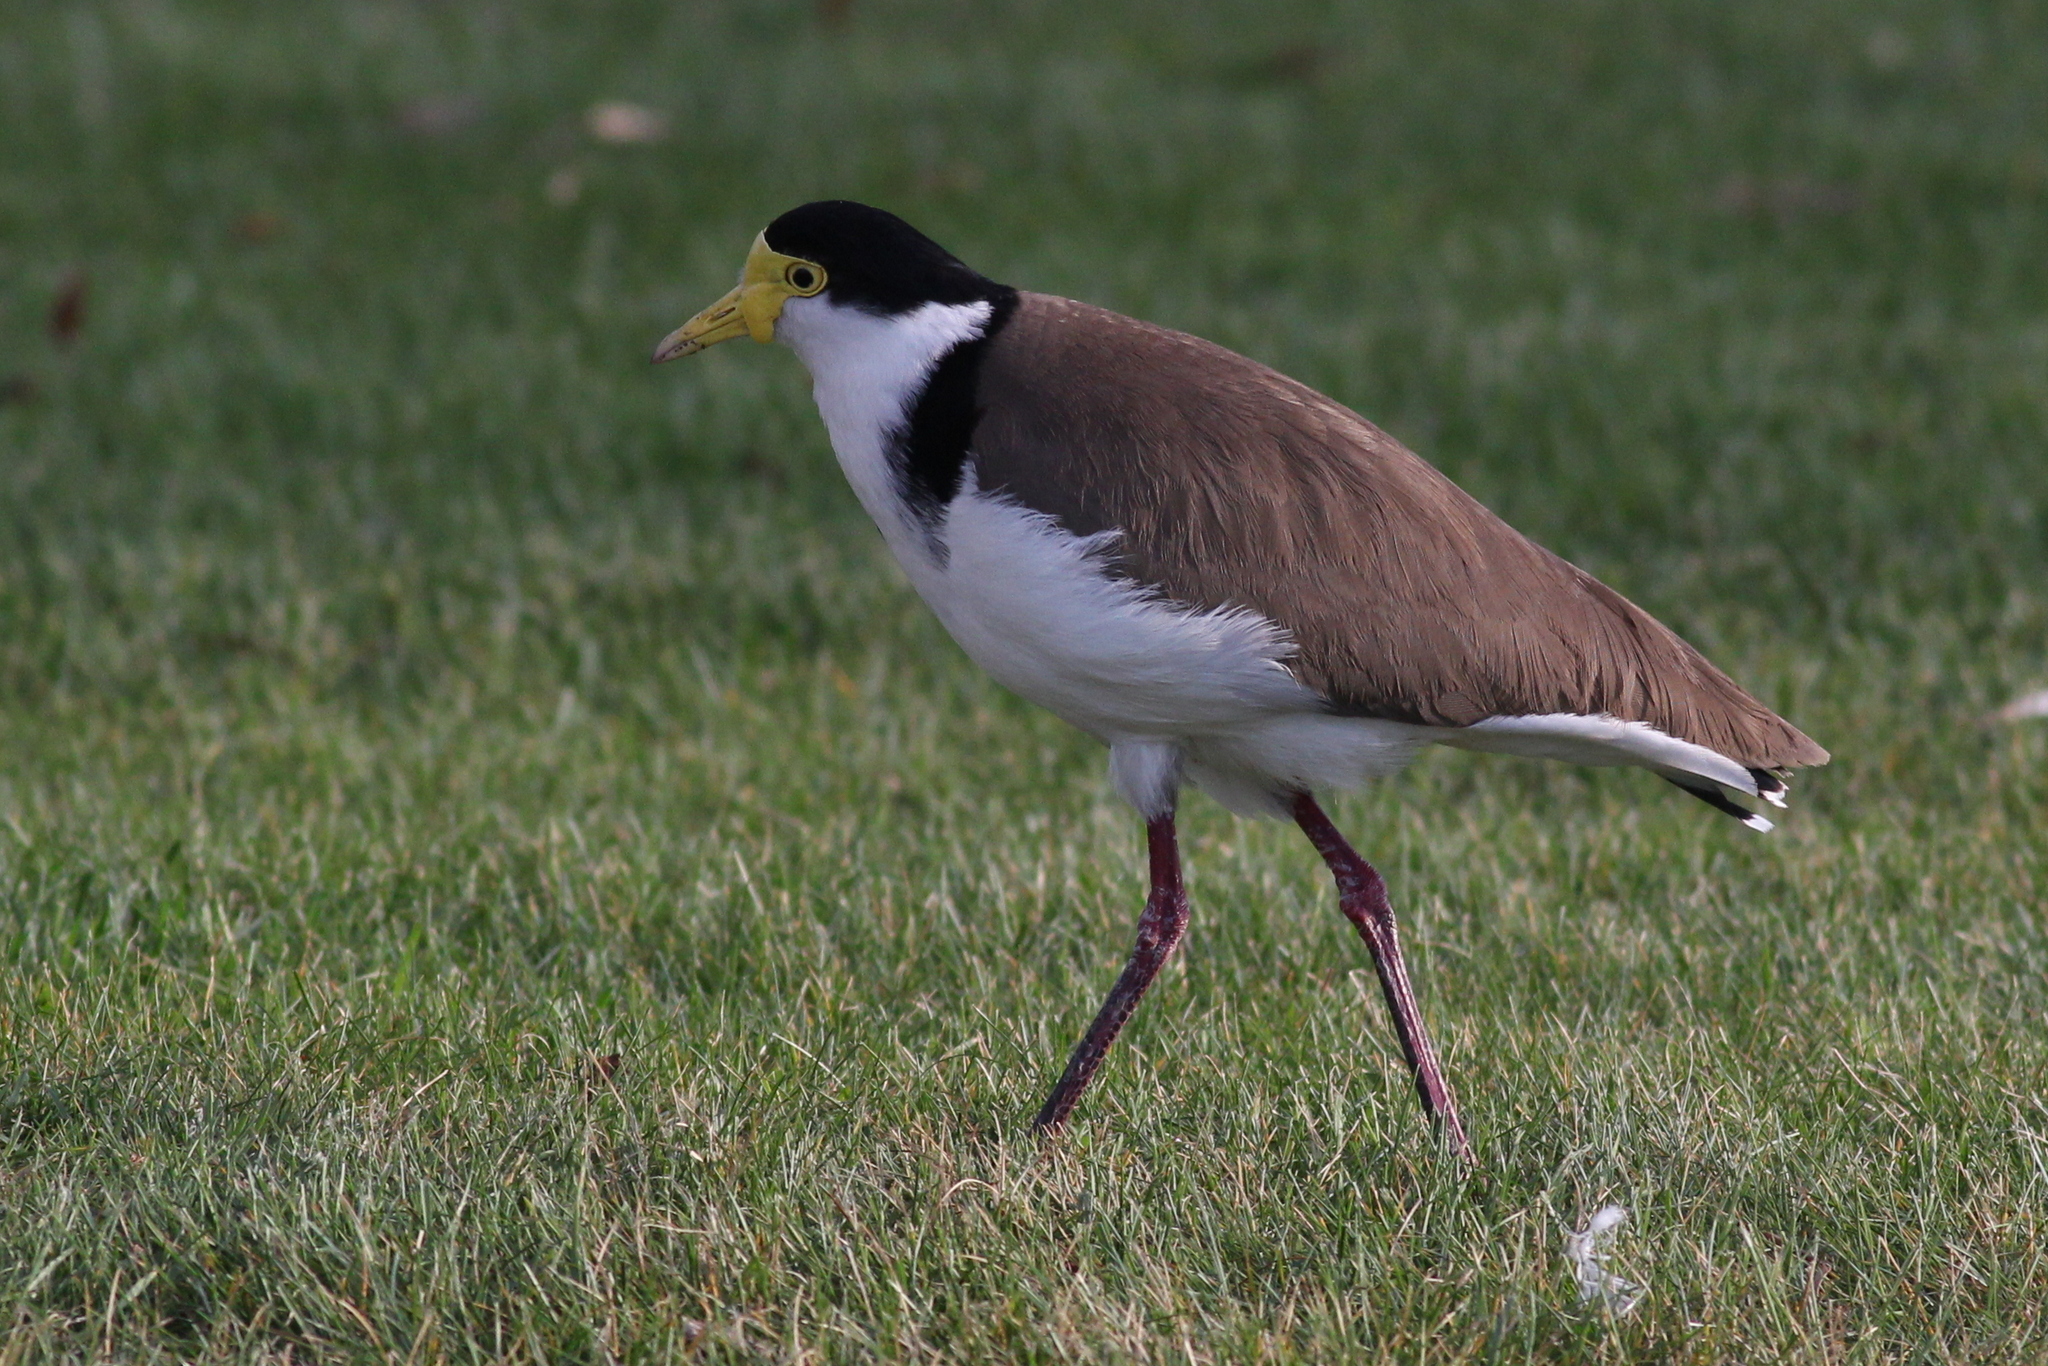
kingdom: Animalia
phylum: Chordata
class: Aves
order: Charadriiformes
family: Charadriidae
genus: Vanellus
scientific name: Vanellus miles
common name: Masked lapwing
